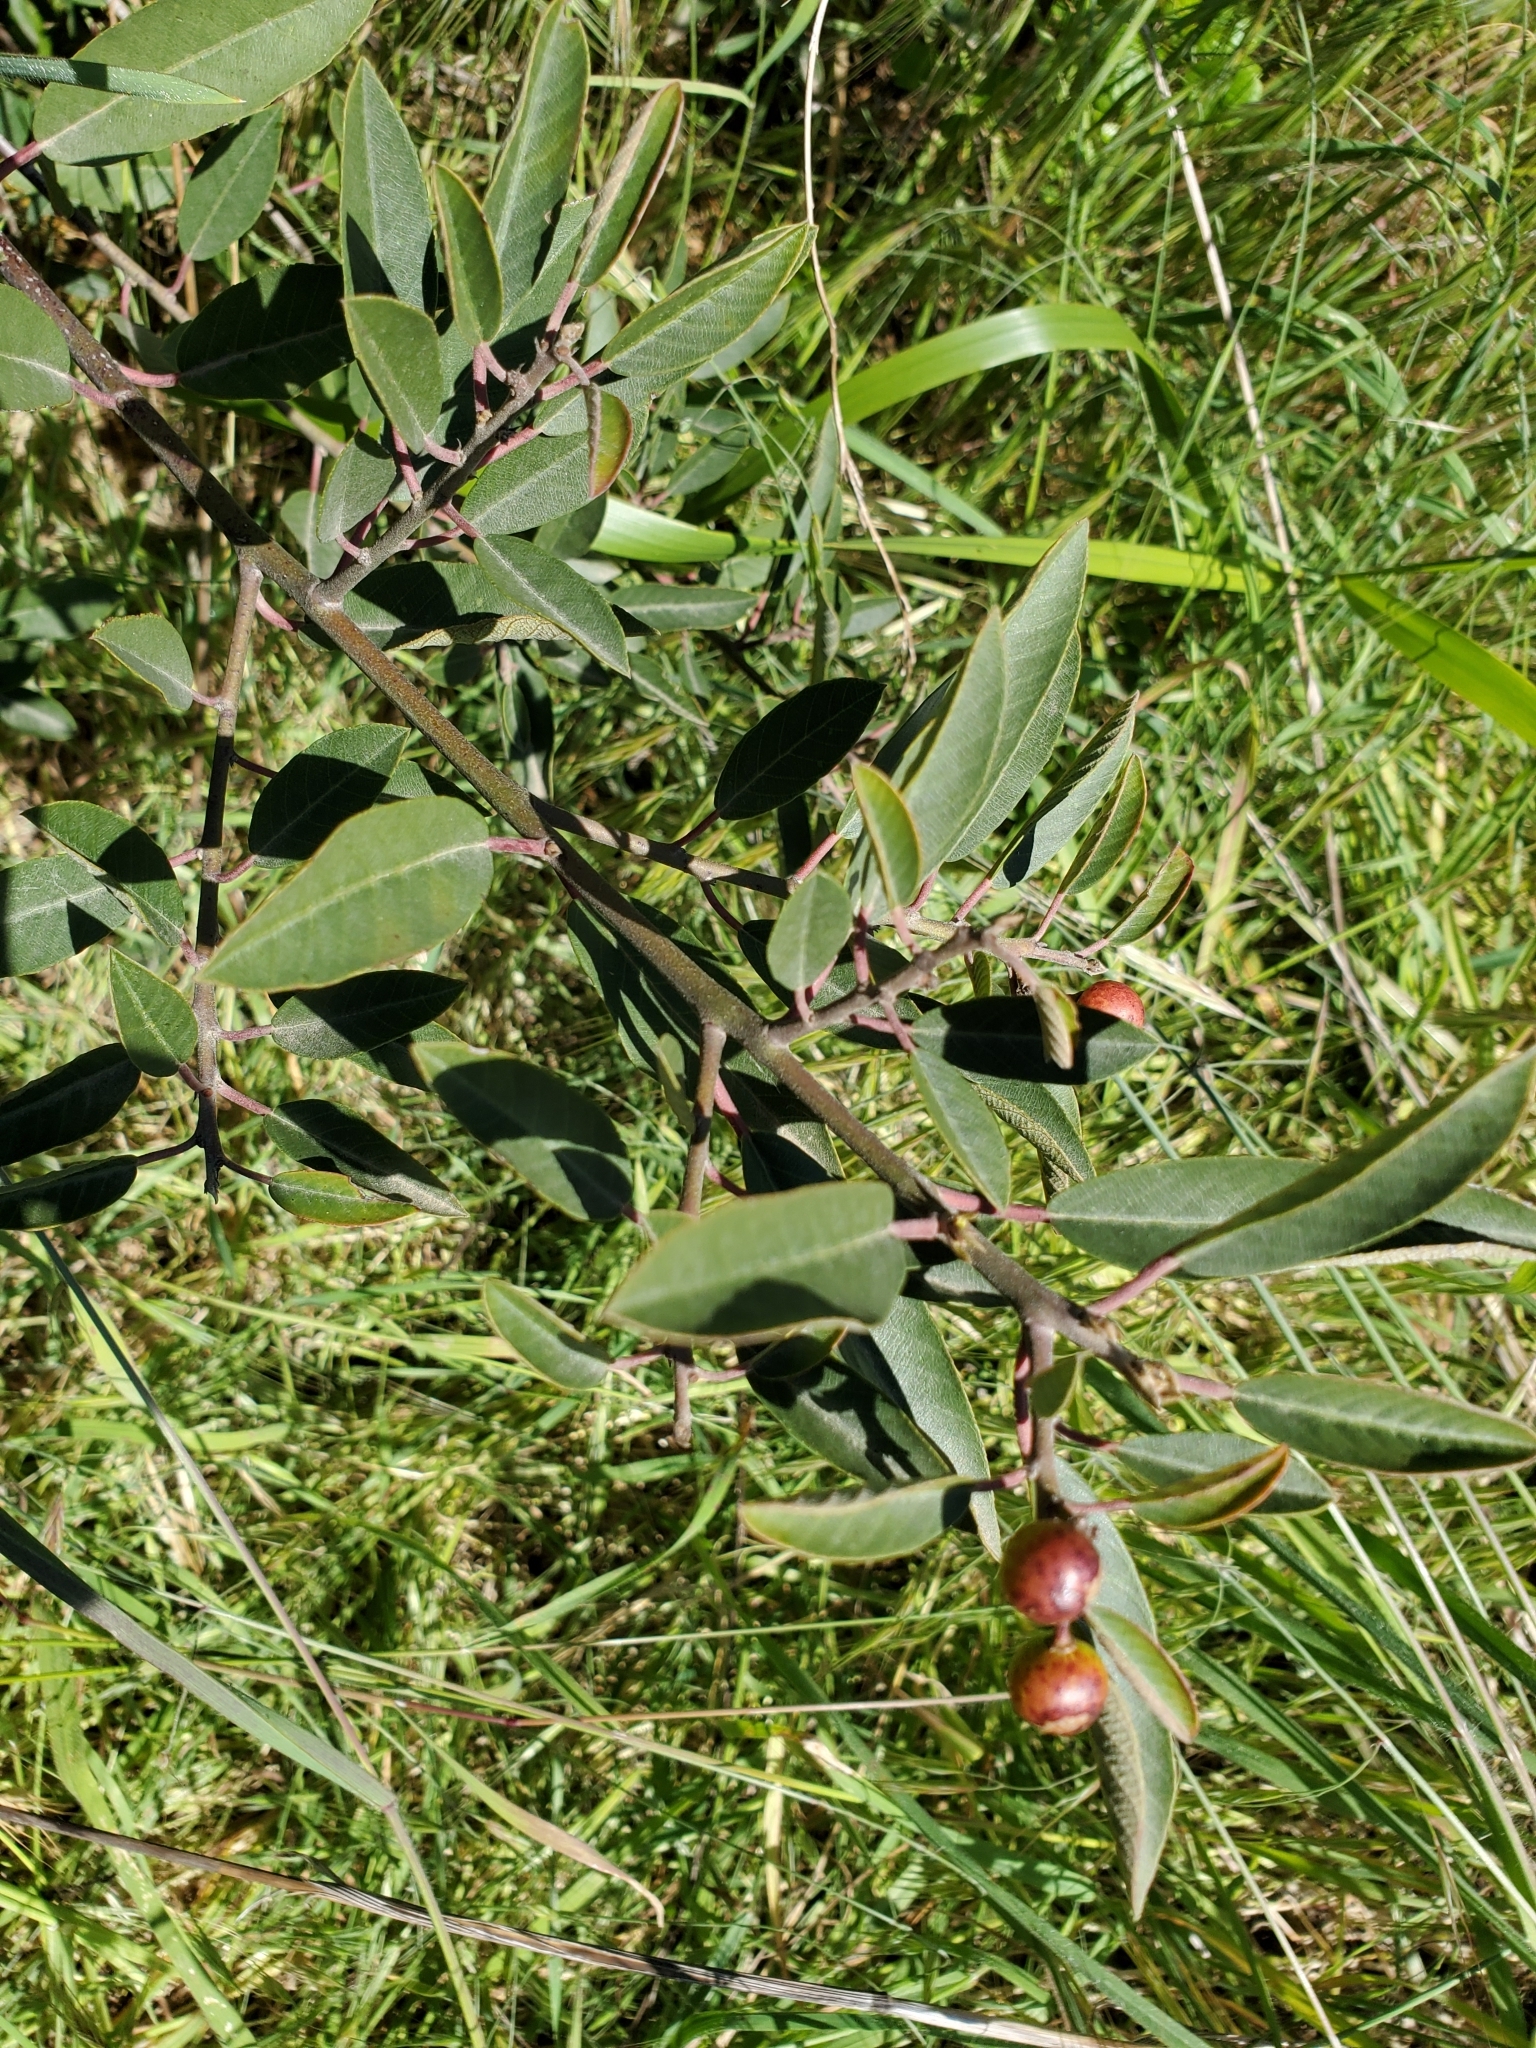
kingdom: Plantae
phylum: Tracheophyta
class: Magnoliopsida
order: Rosales
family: Rhamnaceae
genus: Frangula
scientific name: Frangula californica
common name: California buckthorn
